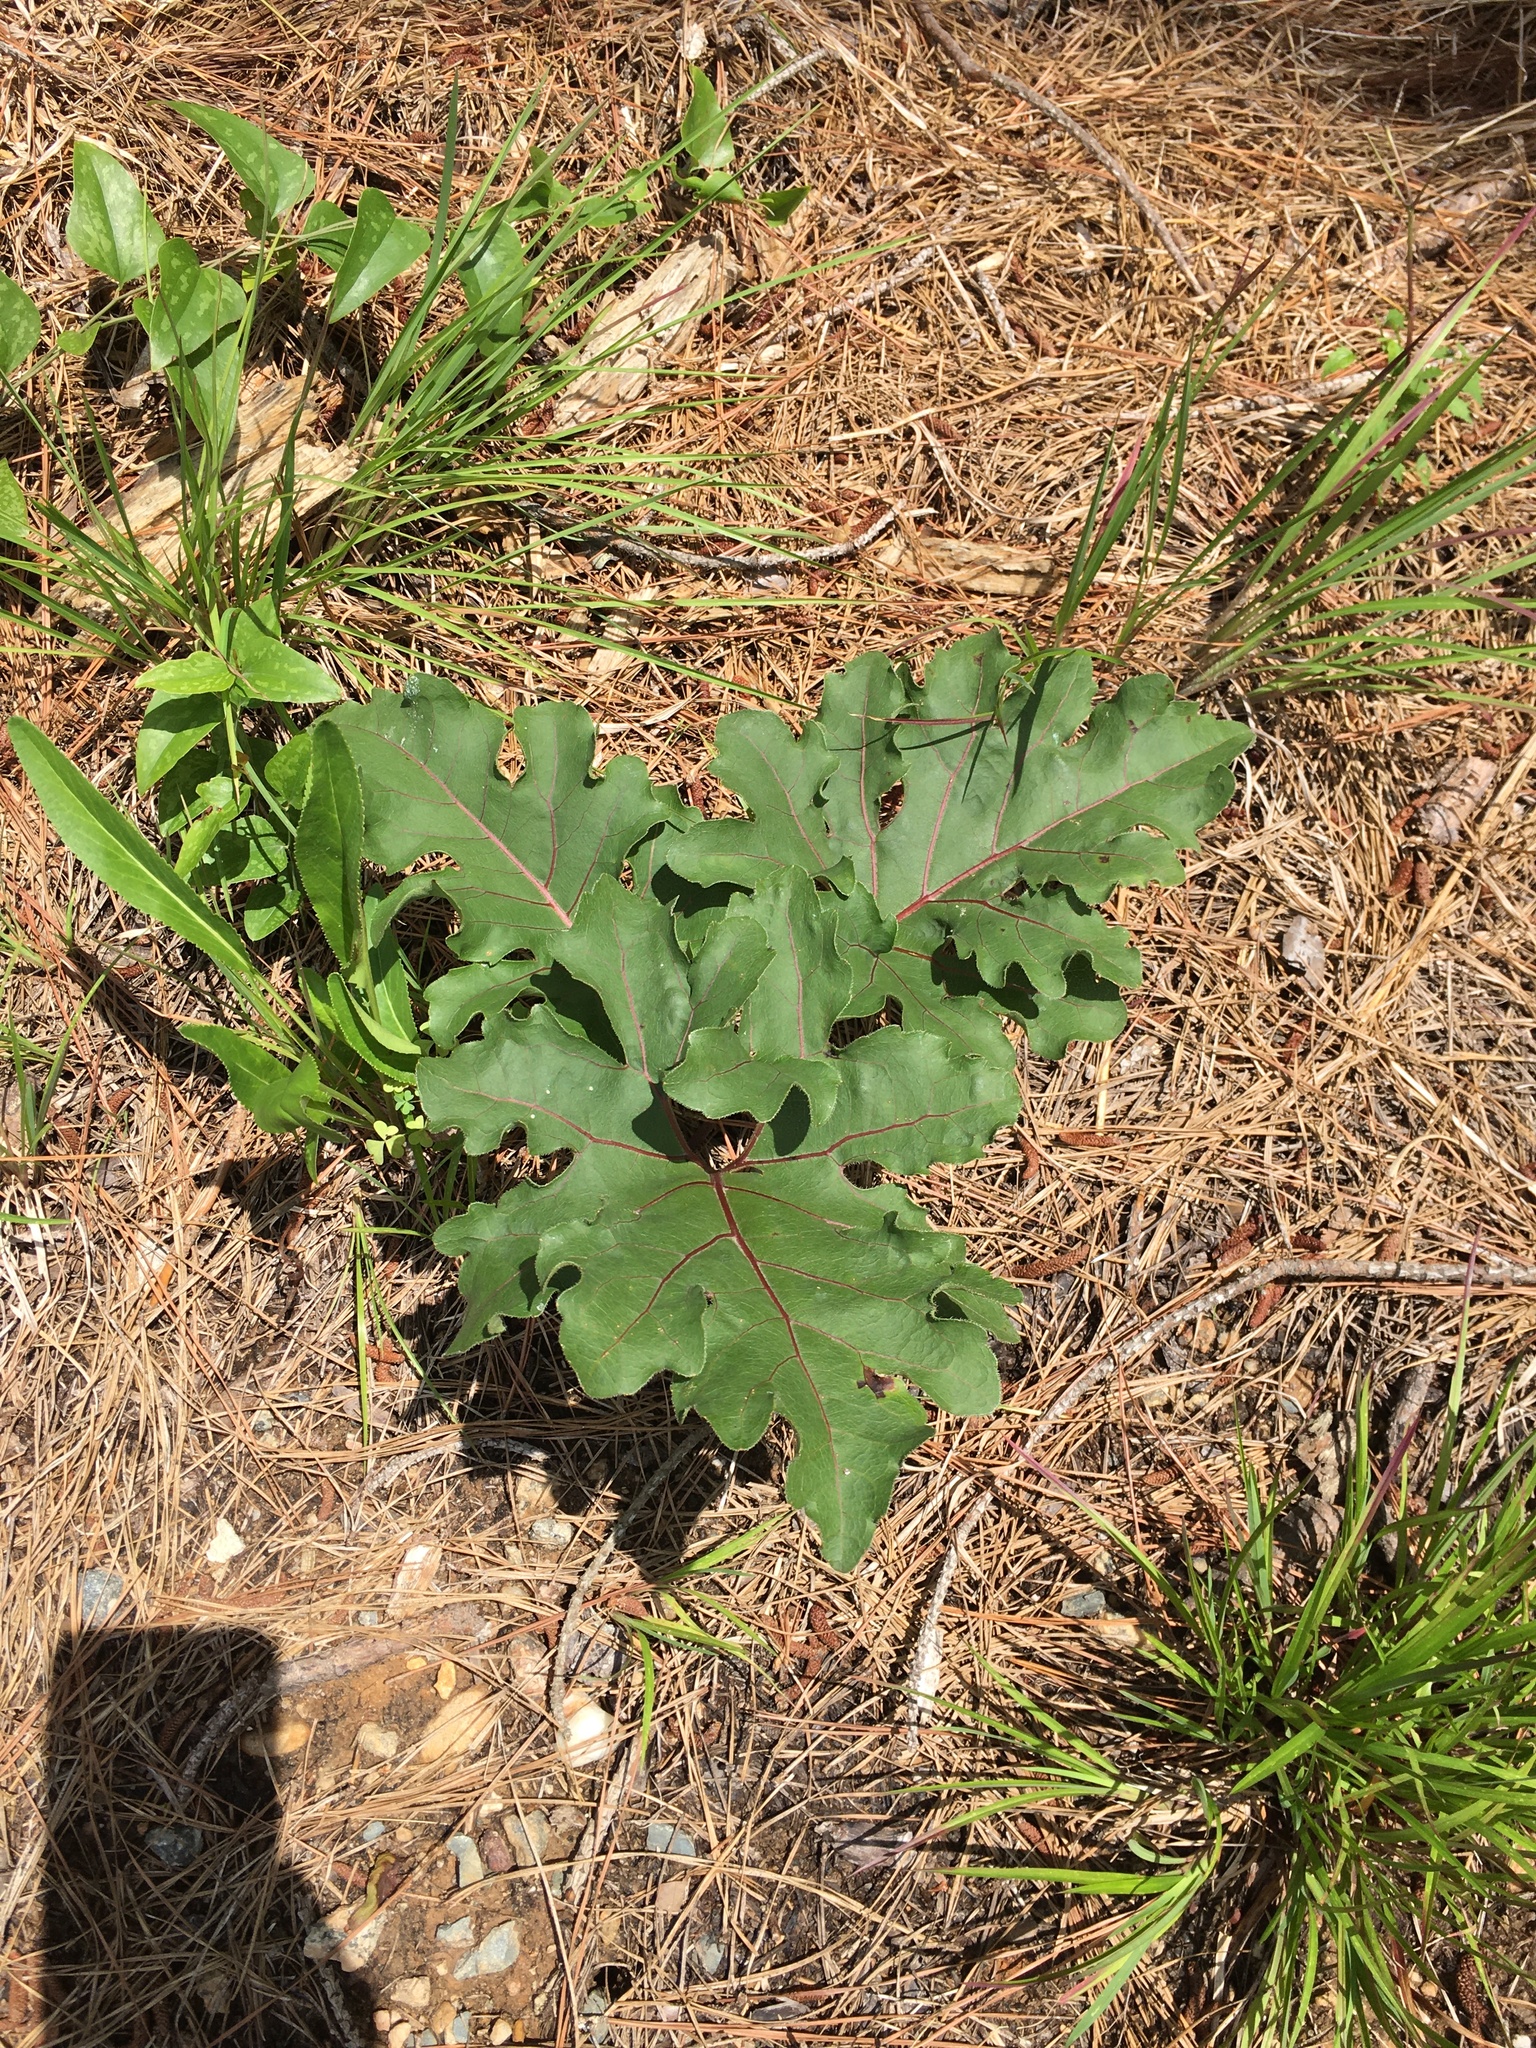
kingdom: Plantae
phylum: Tracheophyta
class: Magnoliopsida
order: Asterales
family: Asteraceae
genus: Silphium
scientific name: Silphium compositum
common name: Lesser basal-leaf rosinweed
